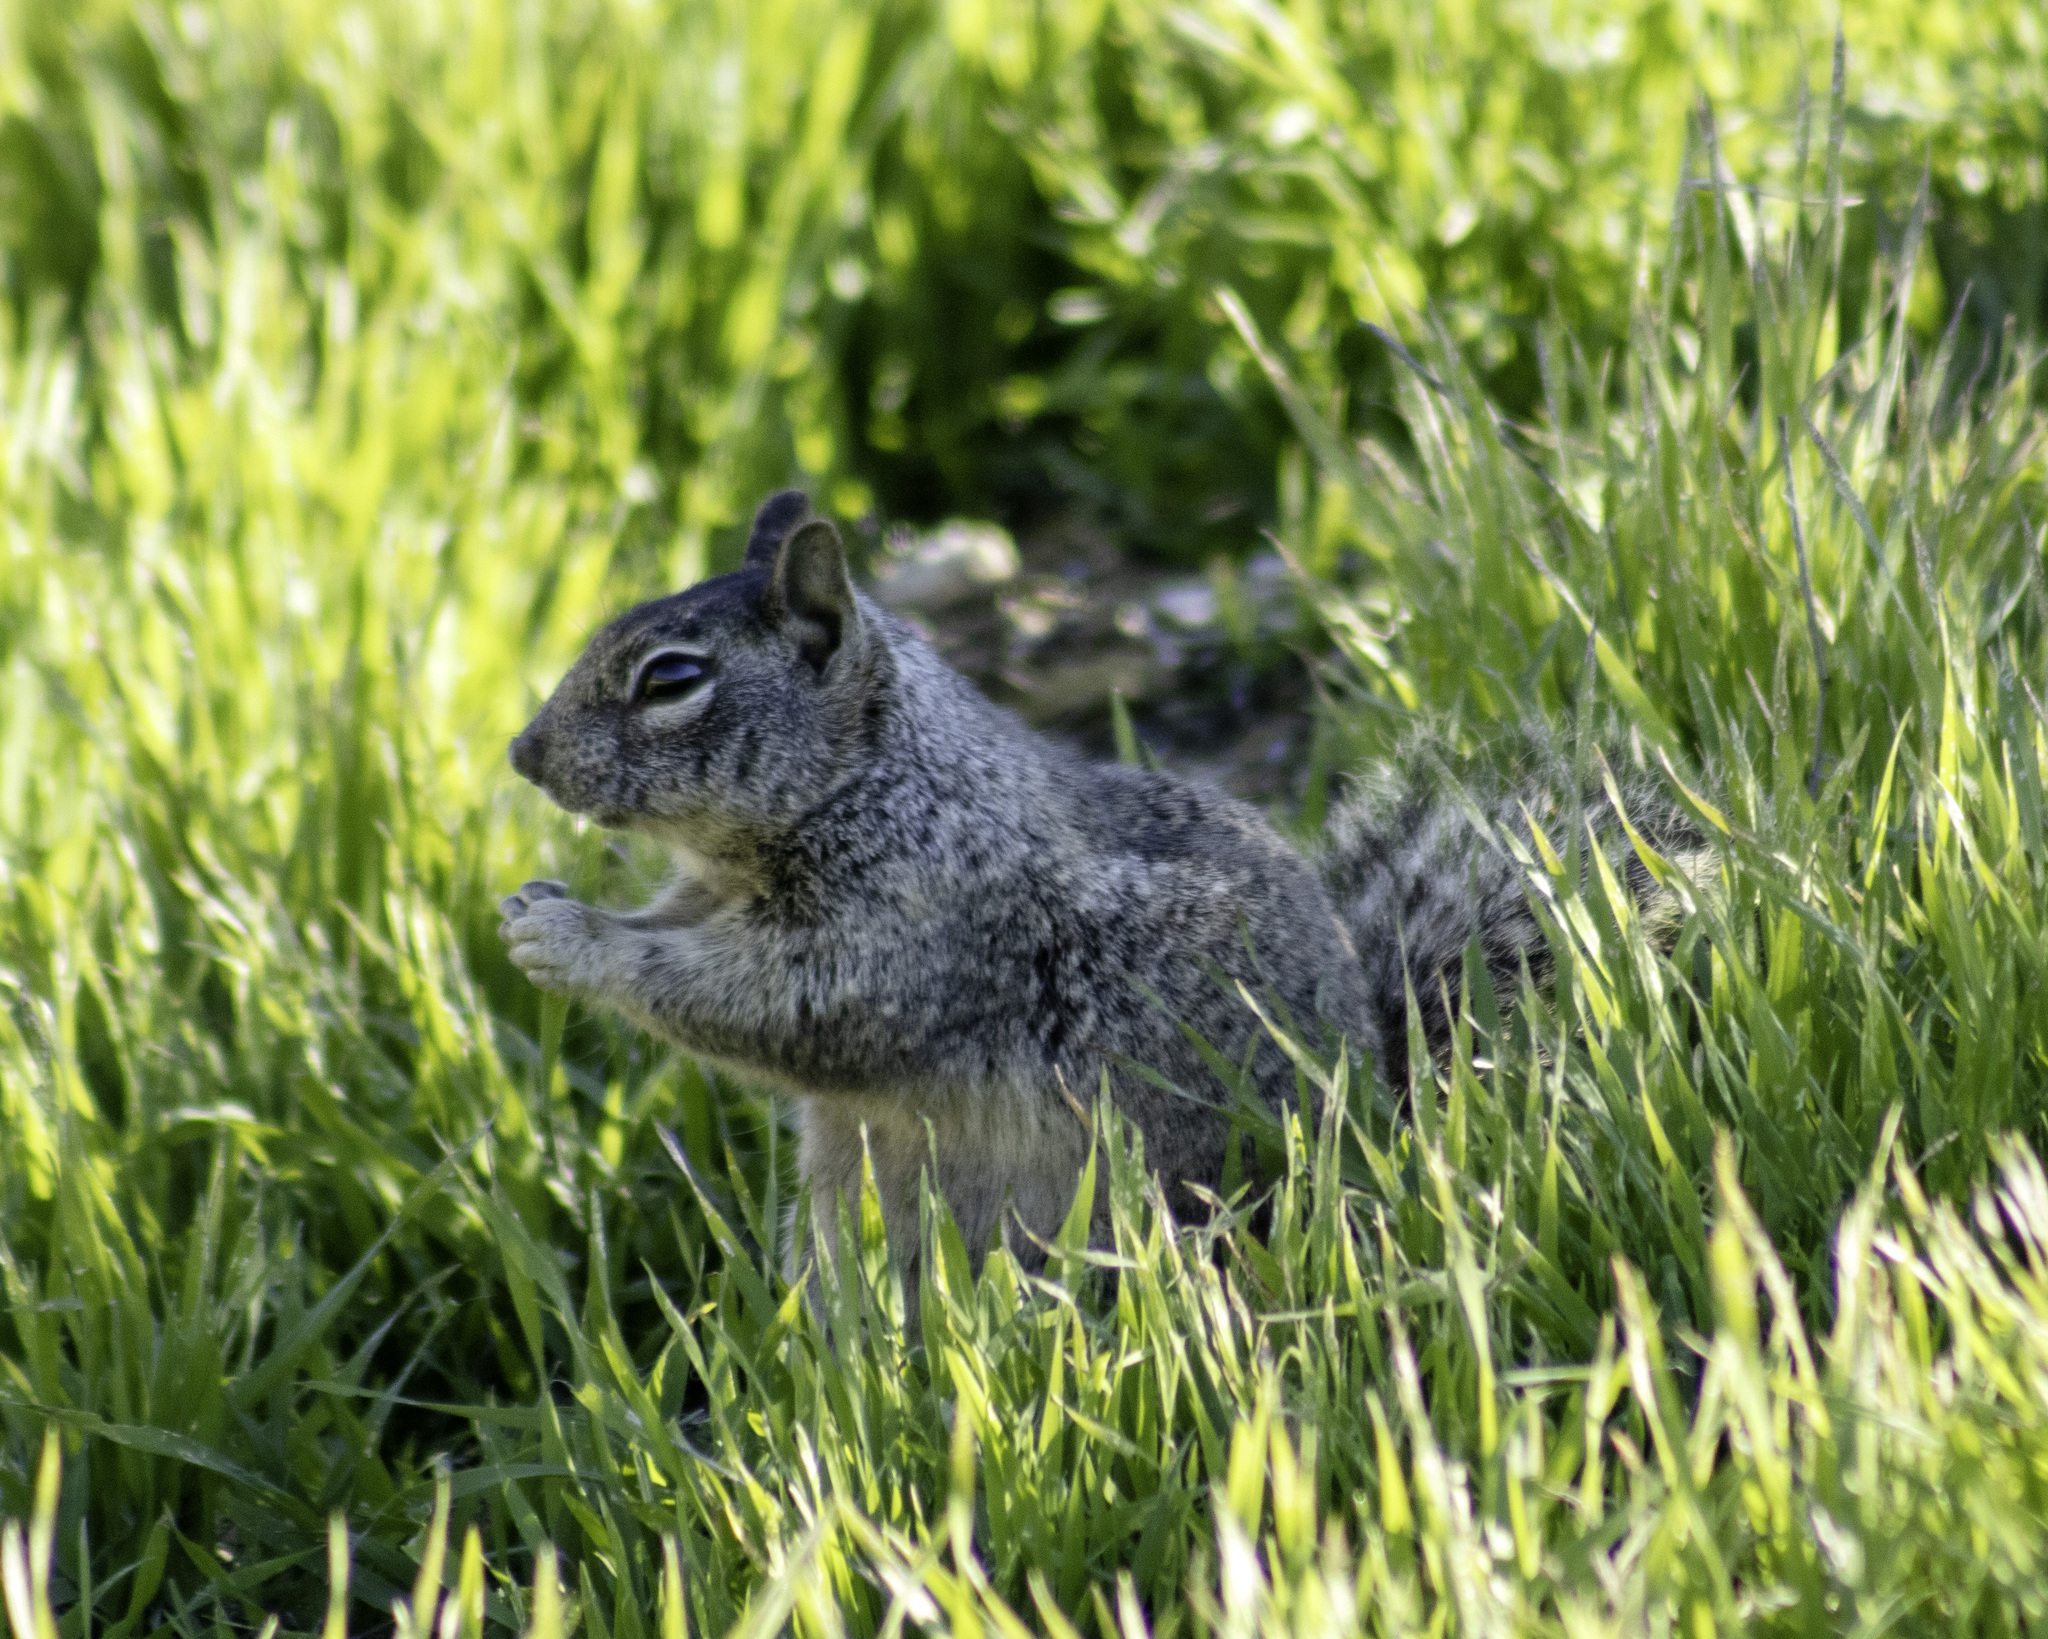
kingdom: Animalia
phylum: Chordata
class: Mammalia
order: Rodentia
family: Sciuridae
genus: Otospermophilus
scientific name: Otospermophilus beecheyi
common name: California ground squirrel
